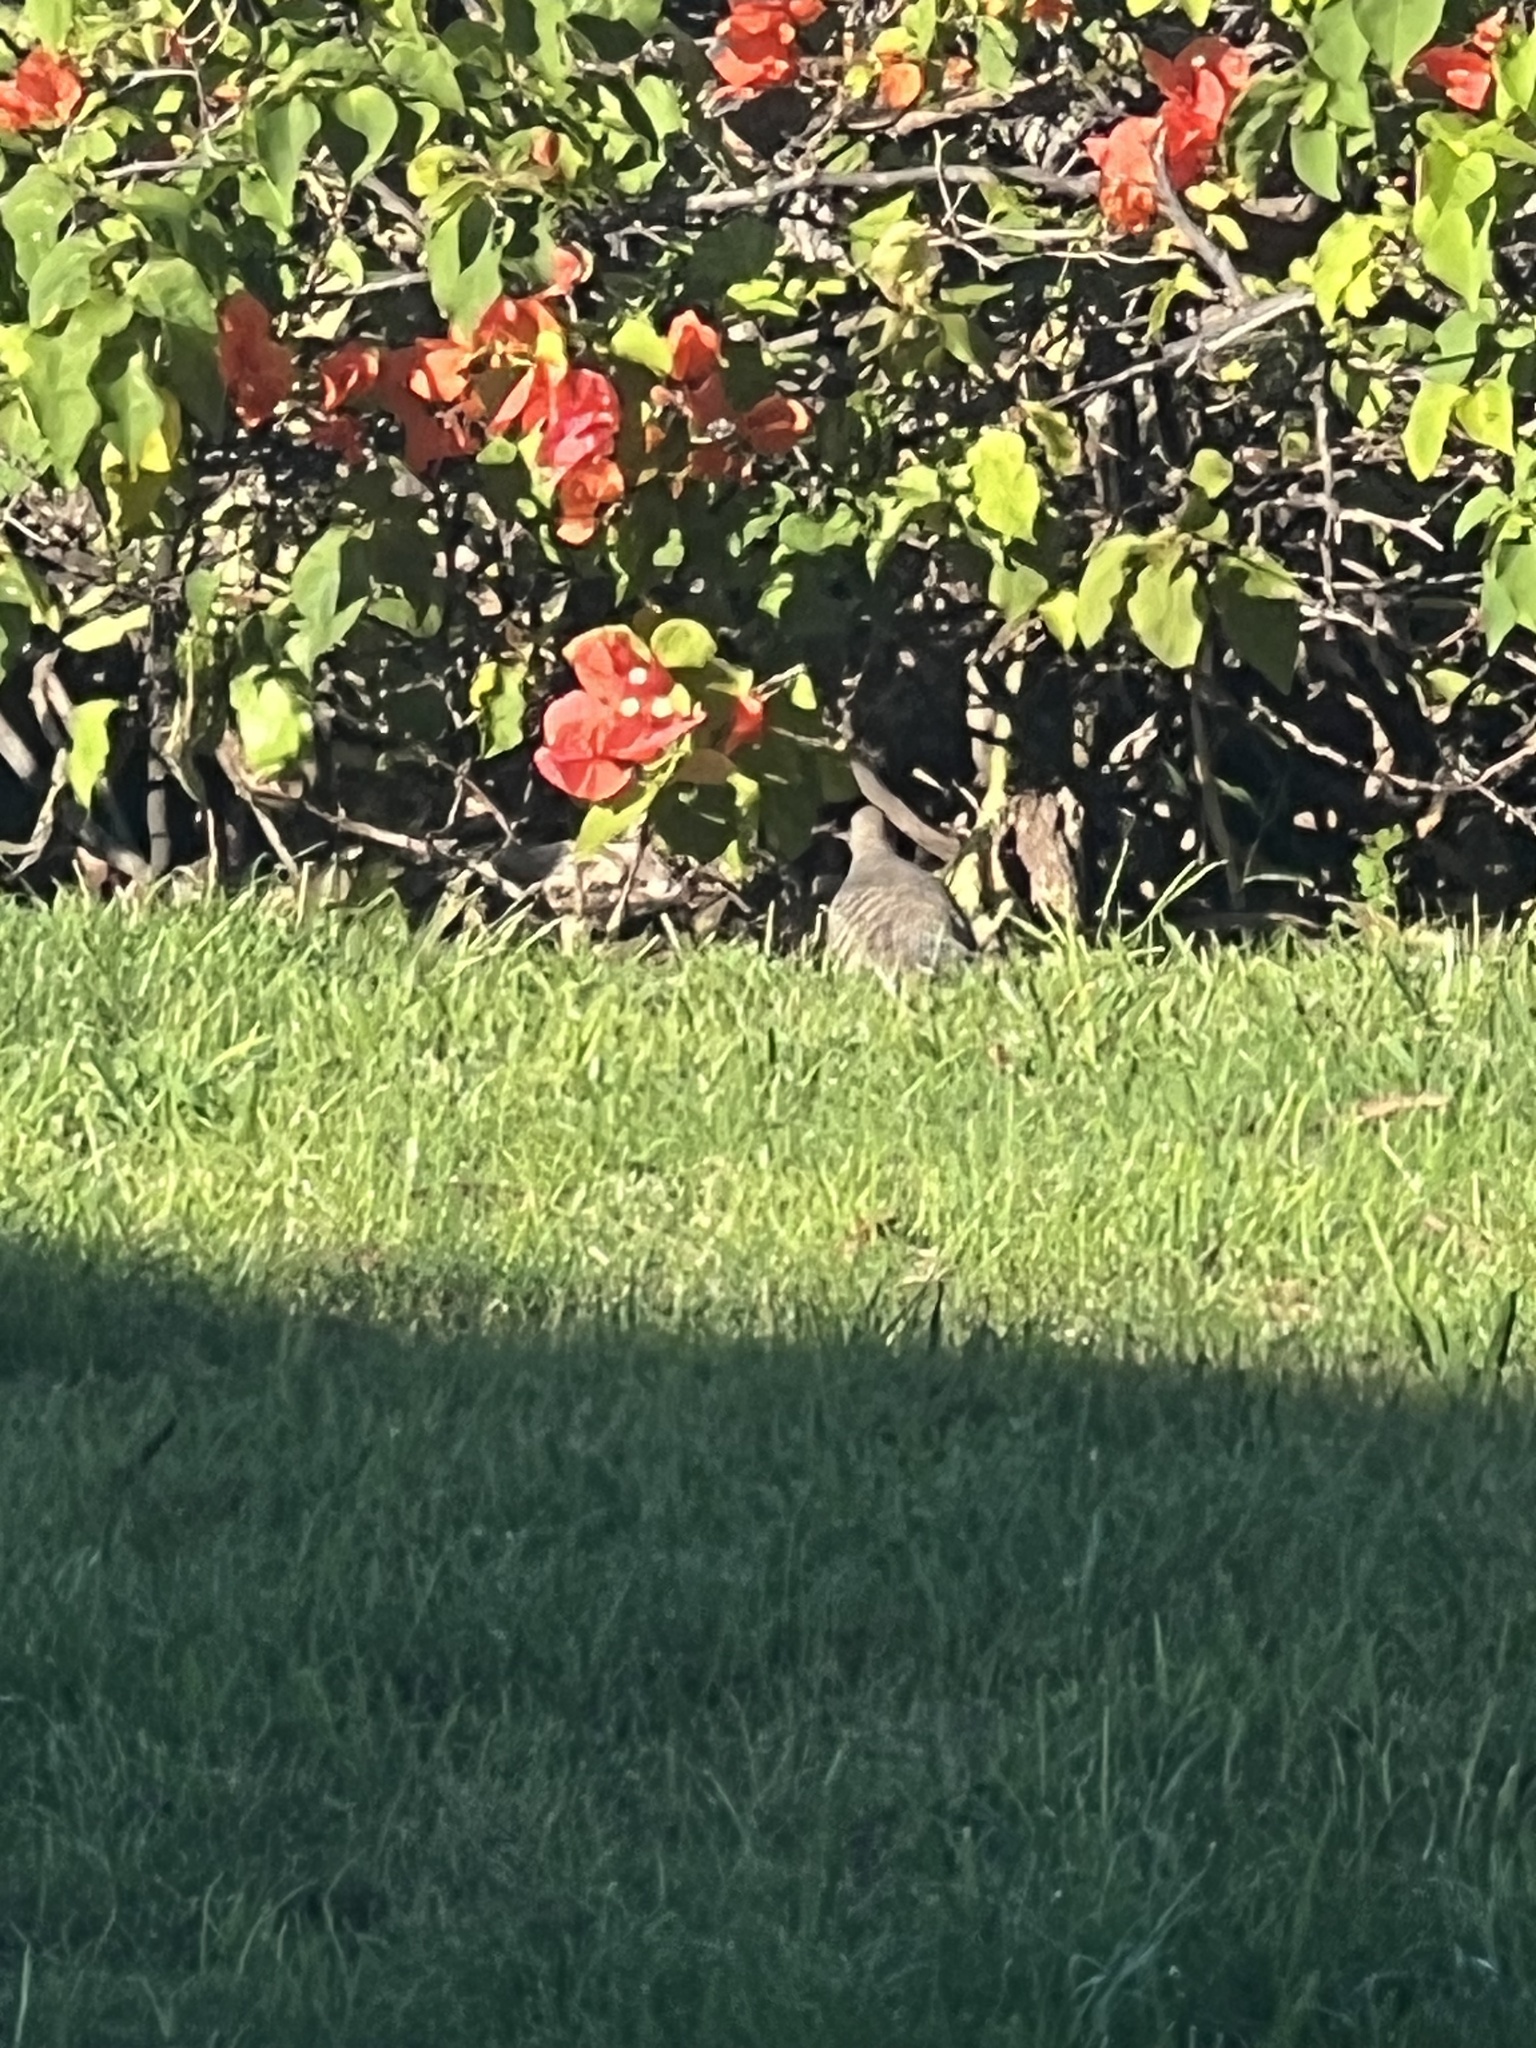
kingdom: Animalia
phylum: Chordata
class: Aves
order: Columbiformes
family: Columbidae
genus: Geopelia
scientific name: Geopelia striata
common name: Zebra dove
